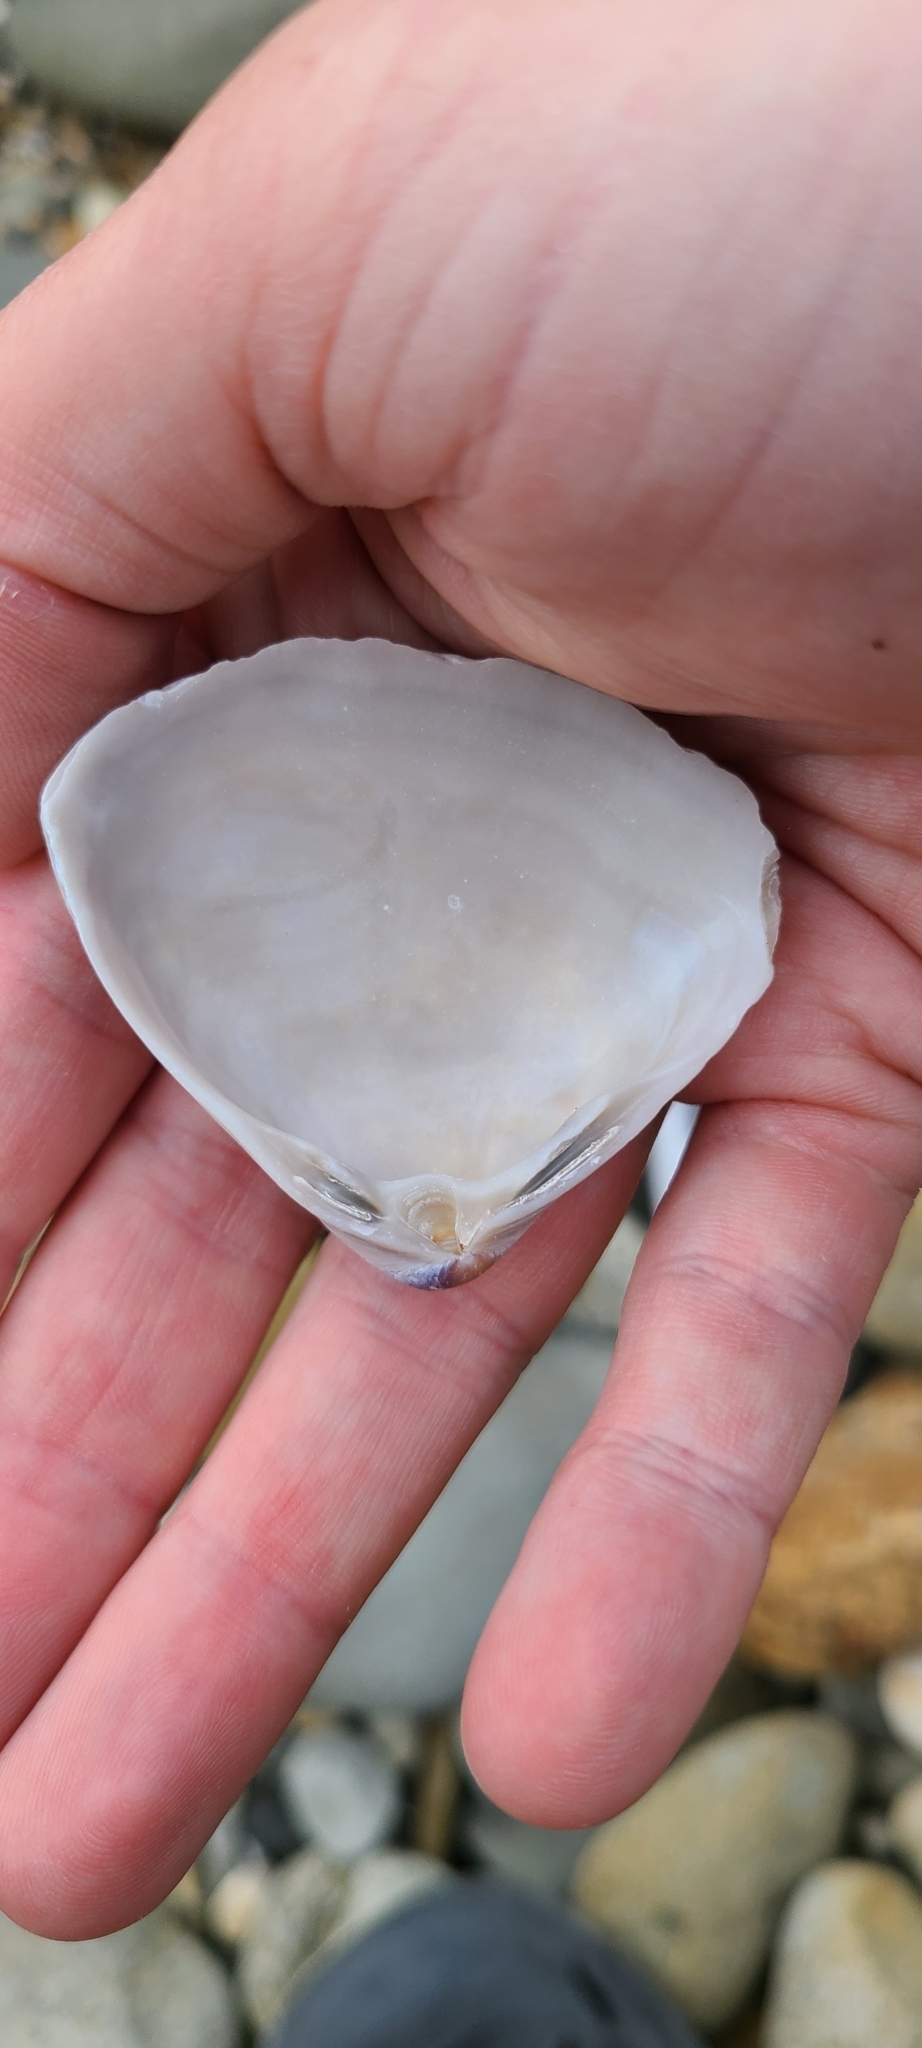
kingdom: Animalia
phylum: Mollusca
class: Bivalvia
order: Venerida
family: Mactridae
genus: Crassula
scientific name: Crassula aequilatera
